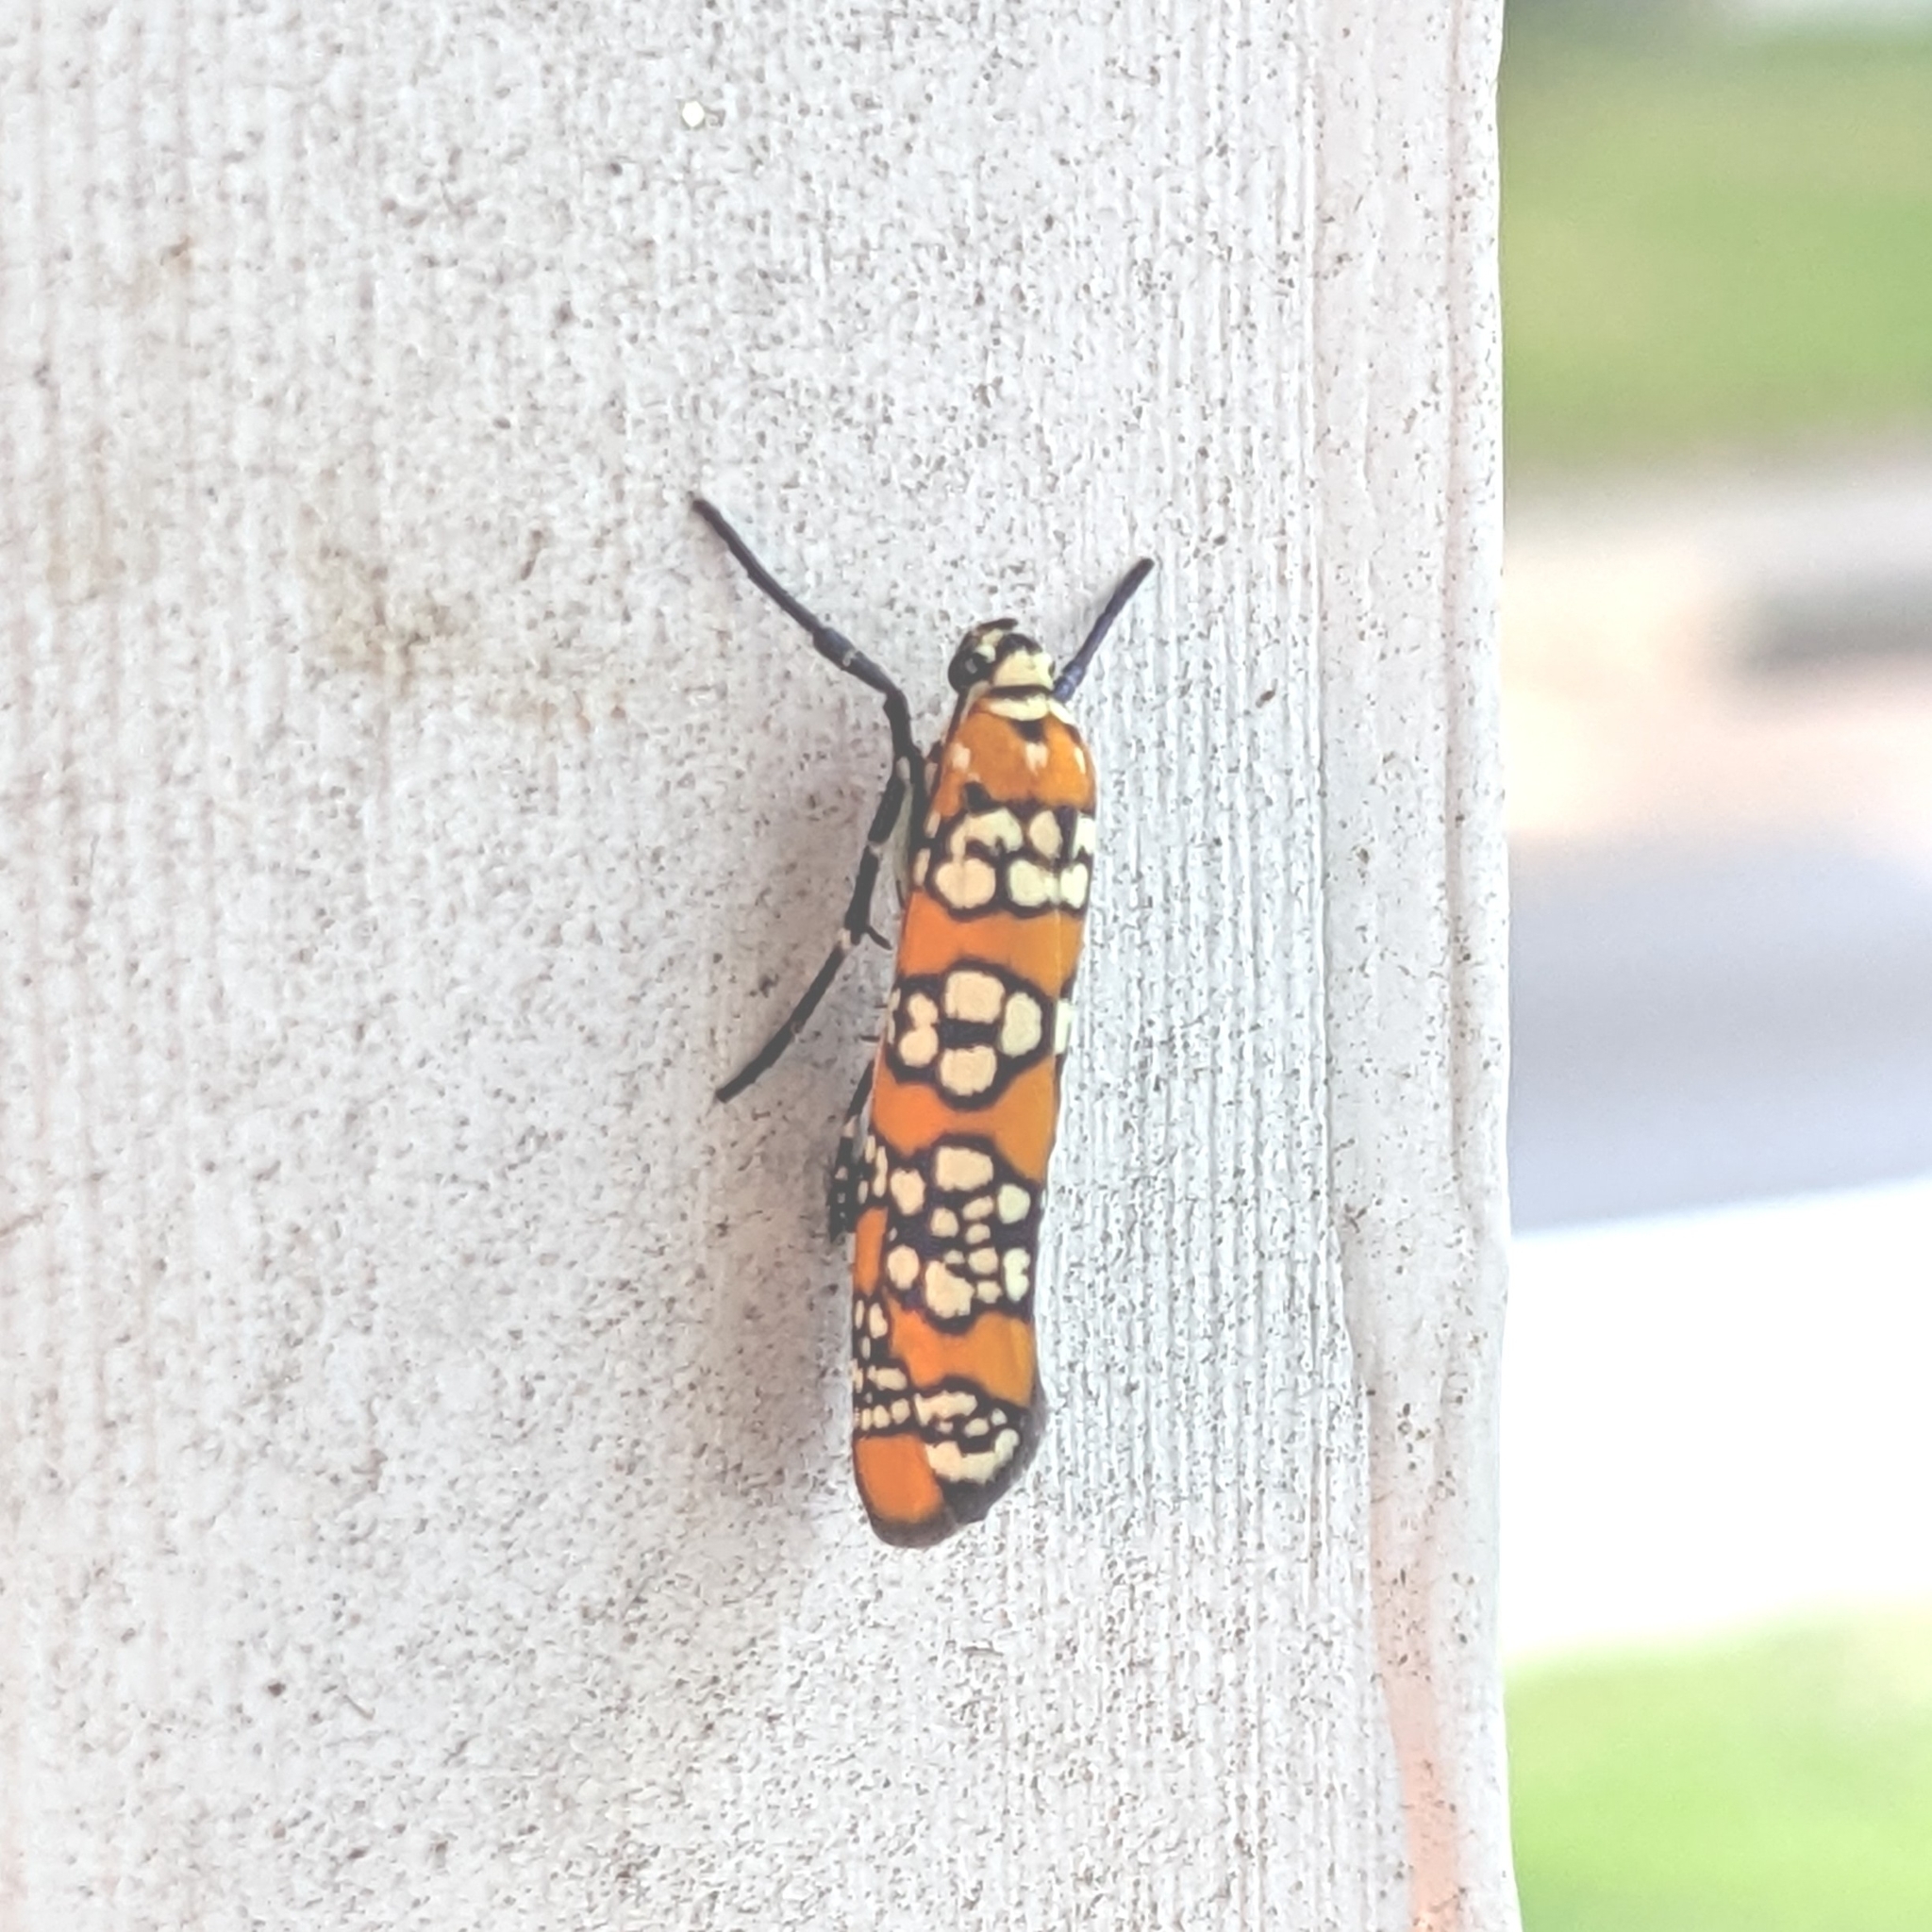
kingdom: Animalia
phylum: Arthropoda
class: Insecta
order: Lepidoptera
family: Attevidae
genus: Atteva
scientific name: Atteva punctella
